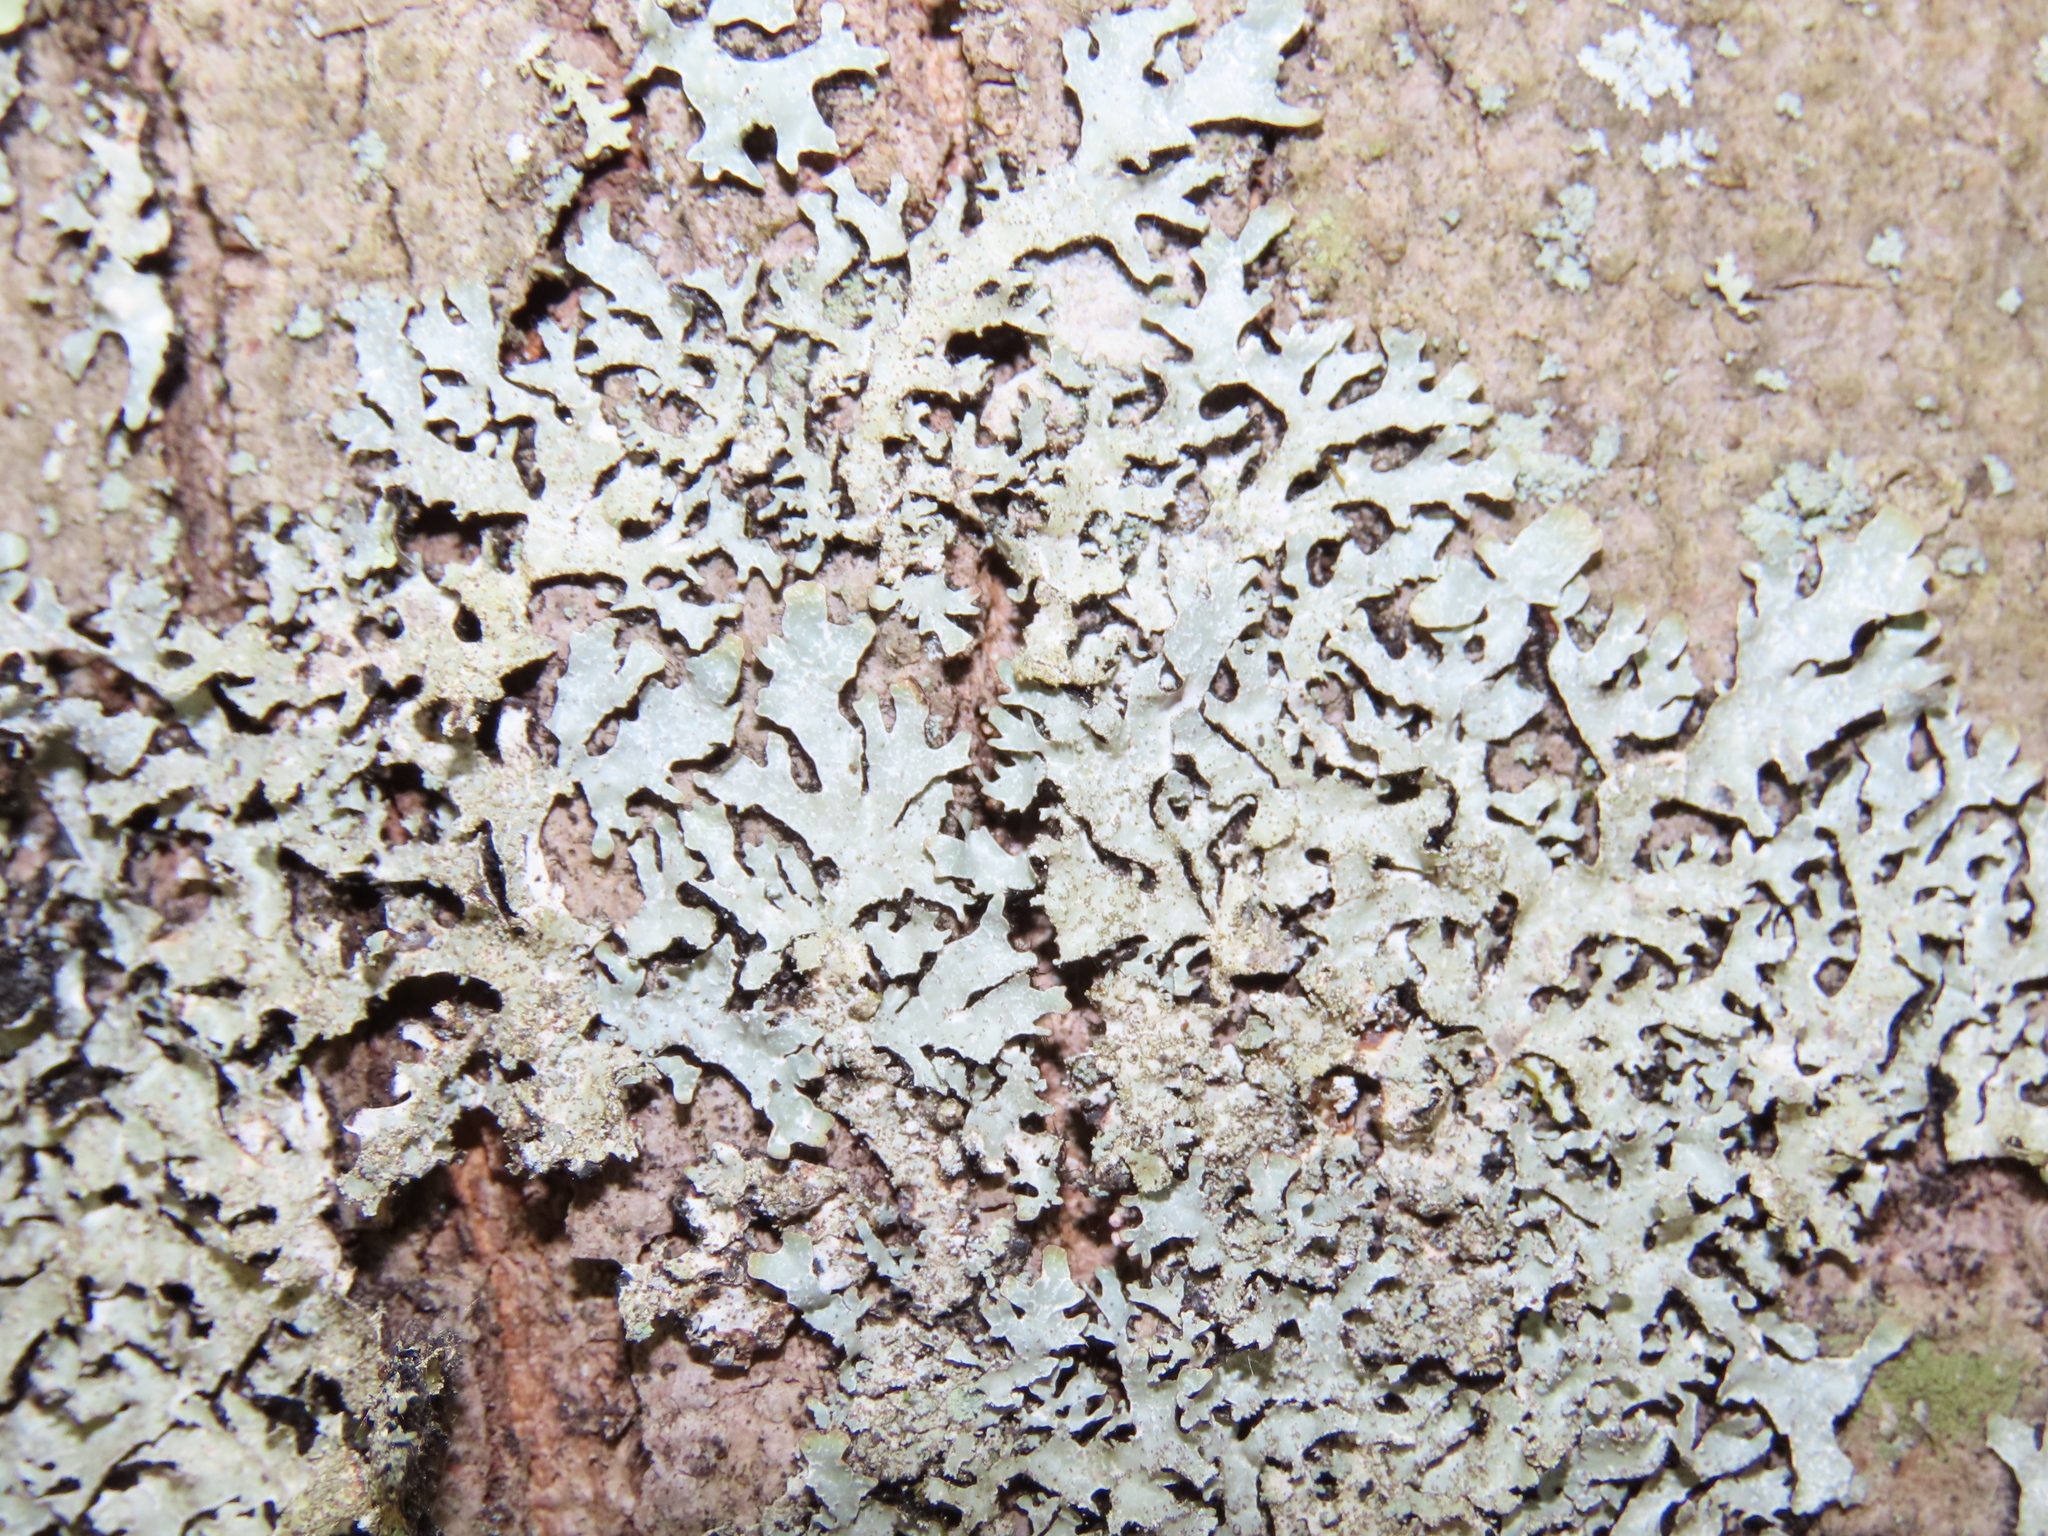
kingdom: Fungi
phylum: Ascomycota
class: Lecanoromycetes
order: Lecanorales
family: Parmeliaceae
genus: Parmelia
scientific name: Parmelia squarrosa
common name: Bottle brush shield lichen
